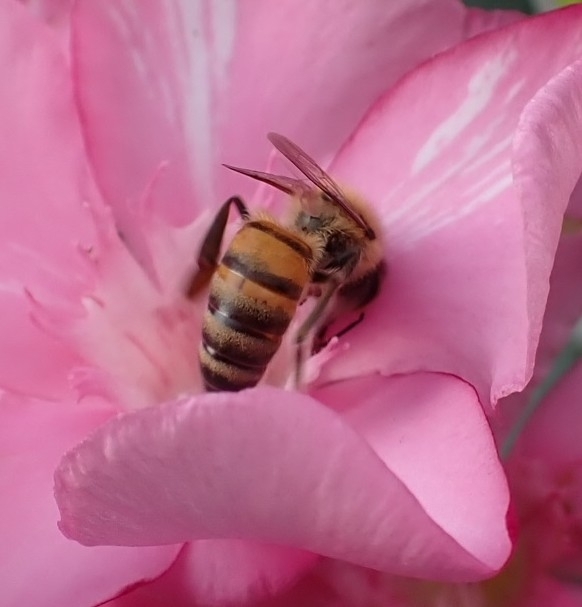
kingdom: Animalia
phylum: Arthropoda
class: Insecta
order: Hymenoptera
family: Apidae
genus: Apis
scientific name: Apis mellifera
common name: Honey bee
